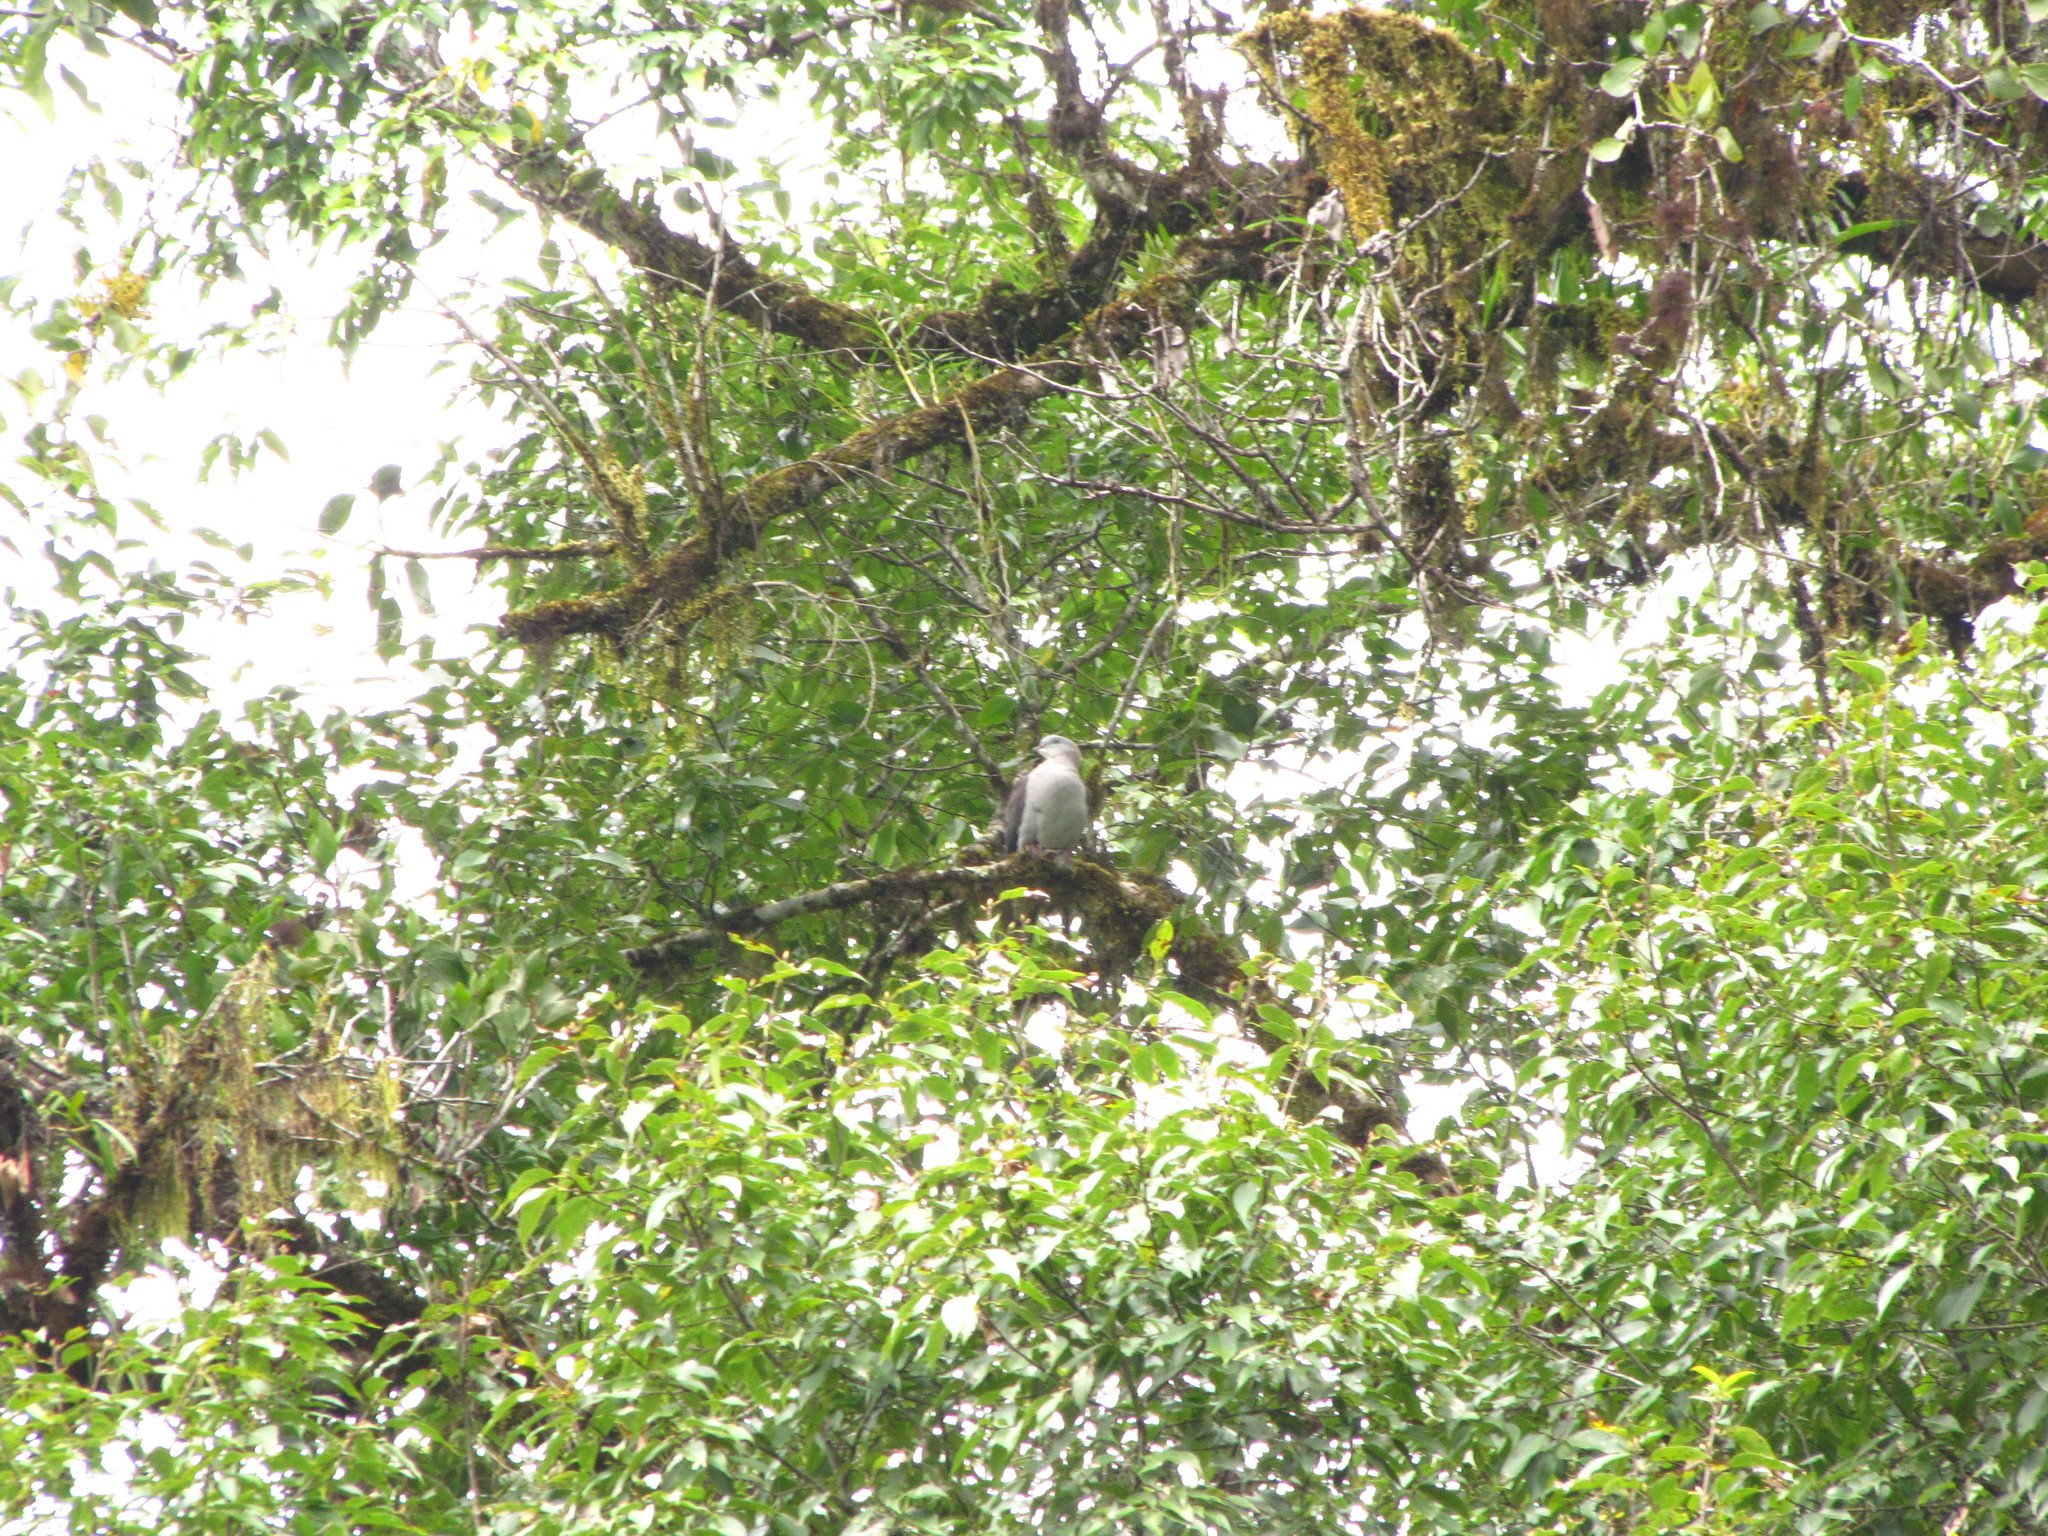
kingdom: Animalia
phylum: Chordata
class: Aves
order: Columbiformes
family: Columbidae
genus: Ducula
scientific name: Ducula badia
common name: Mountain imperial pigeon
